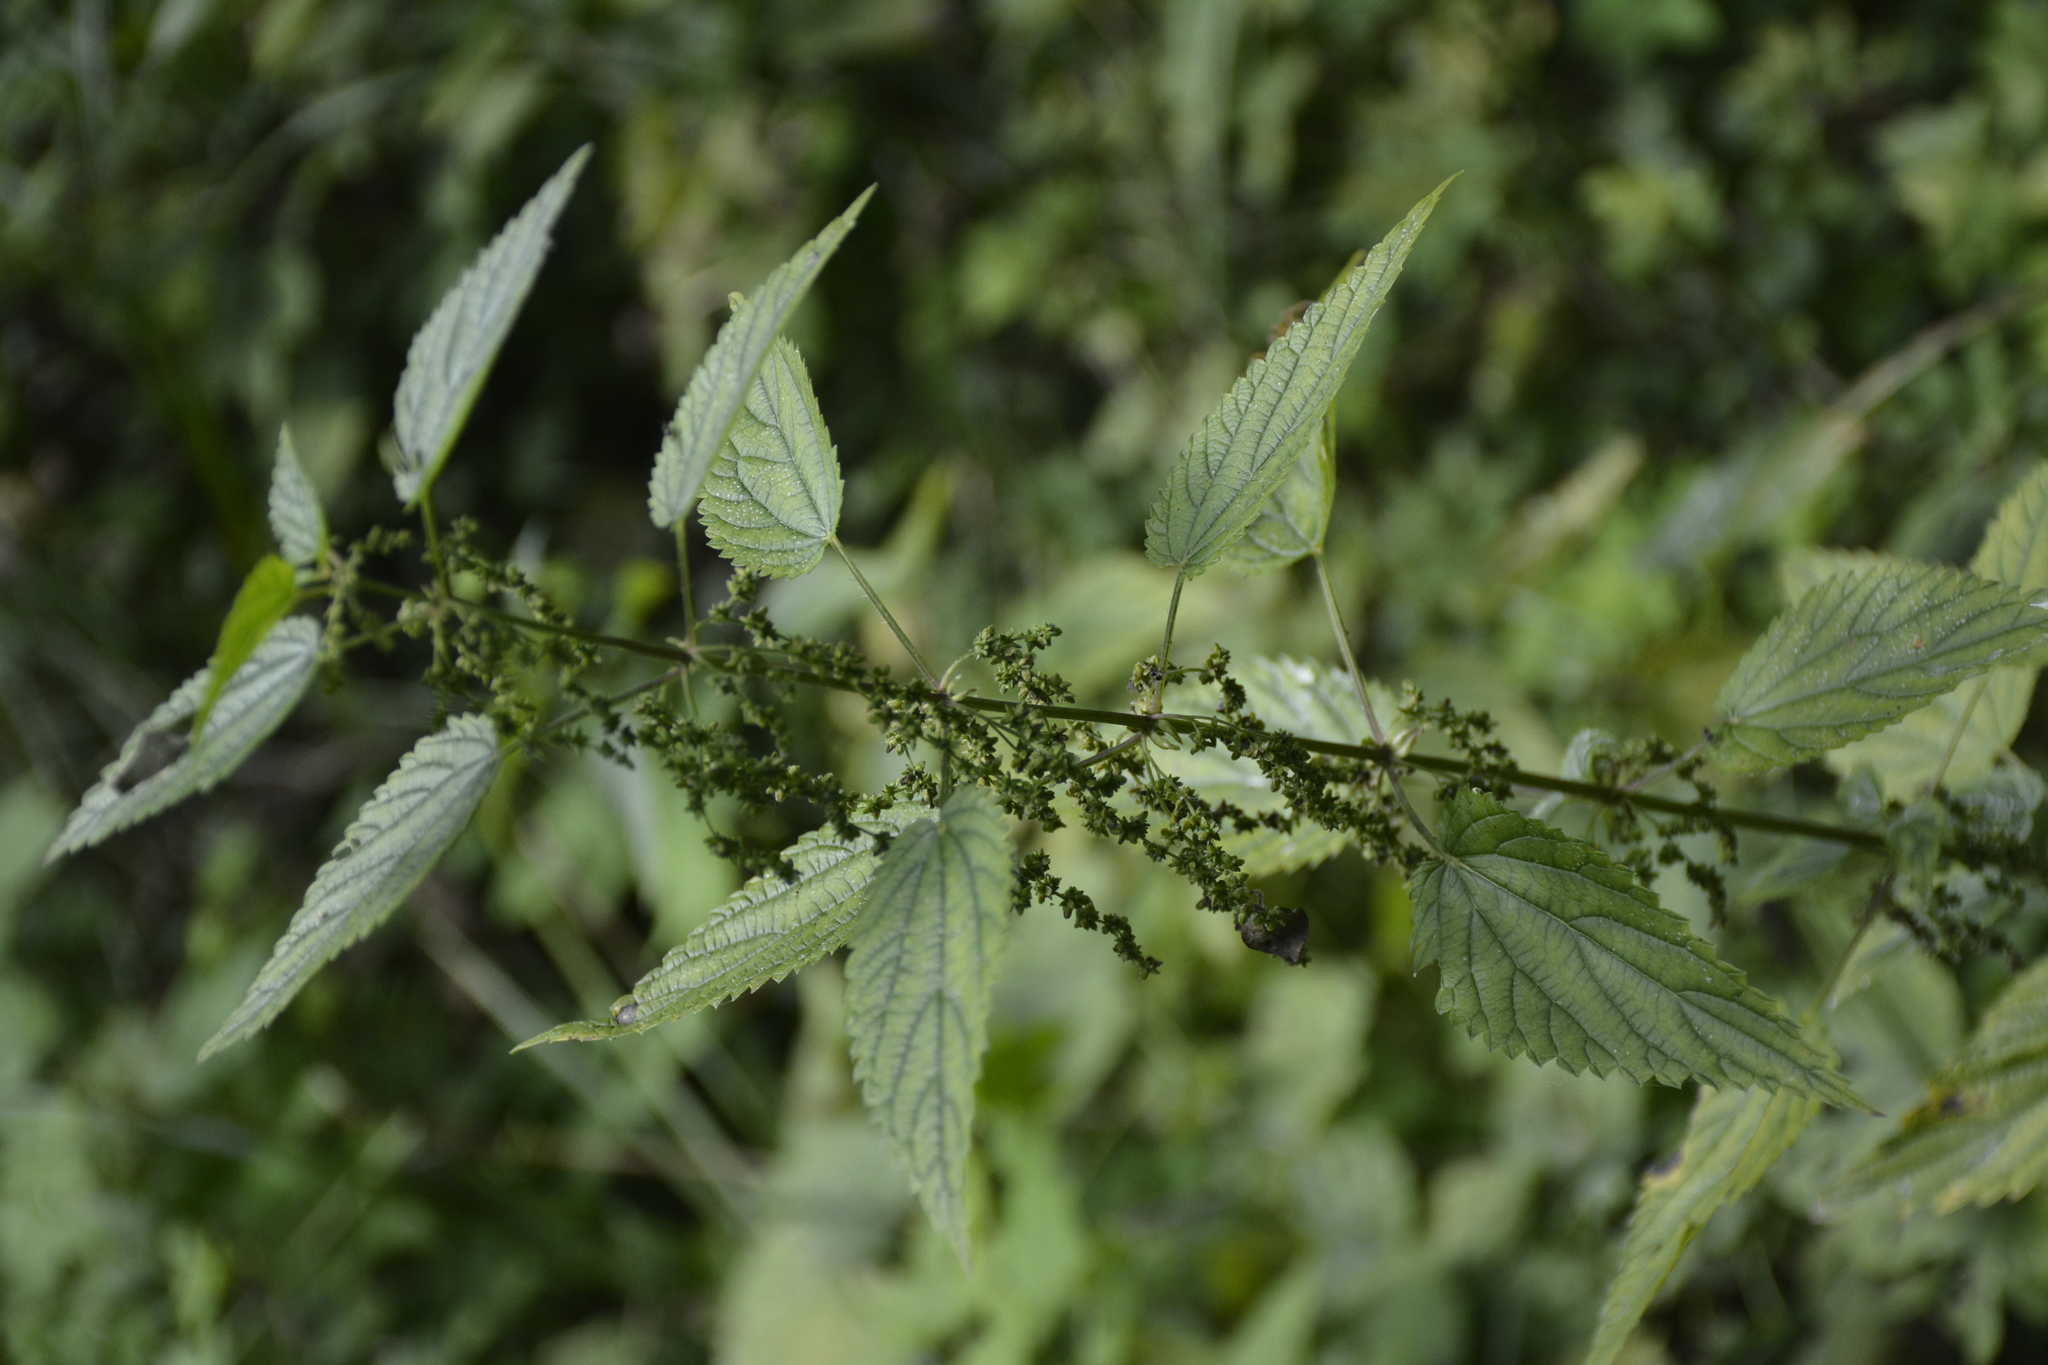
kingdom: Plantae
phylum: Tracheophyta
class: Magnoliopsida
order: Rosales
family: Urticaceae
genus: Urtica
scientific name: Urtica dioica
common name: Common nettle
